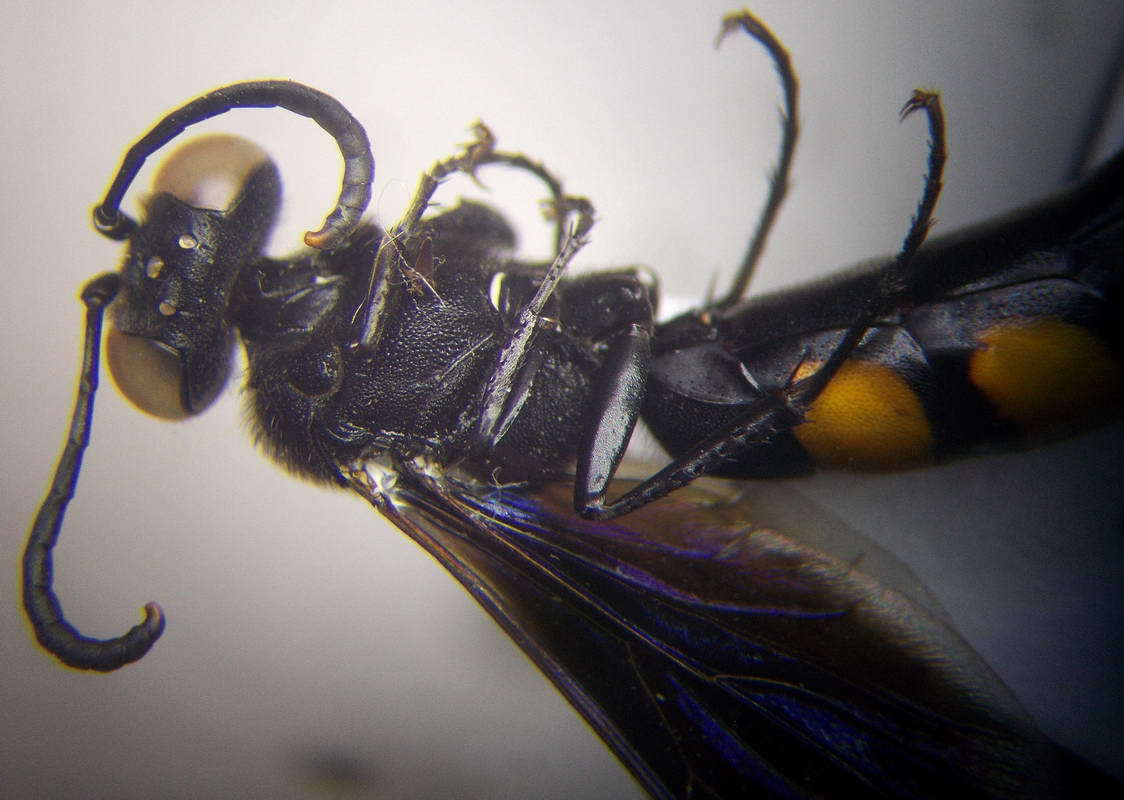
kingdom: Animalia
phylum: Arthropoda
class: Insecta
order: Hymenoptera
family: Crabronidae
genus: Stizoides
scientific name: Stizoides tridentatus
